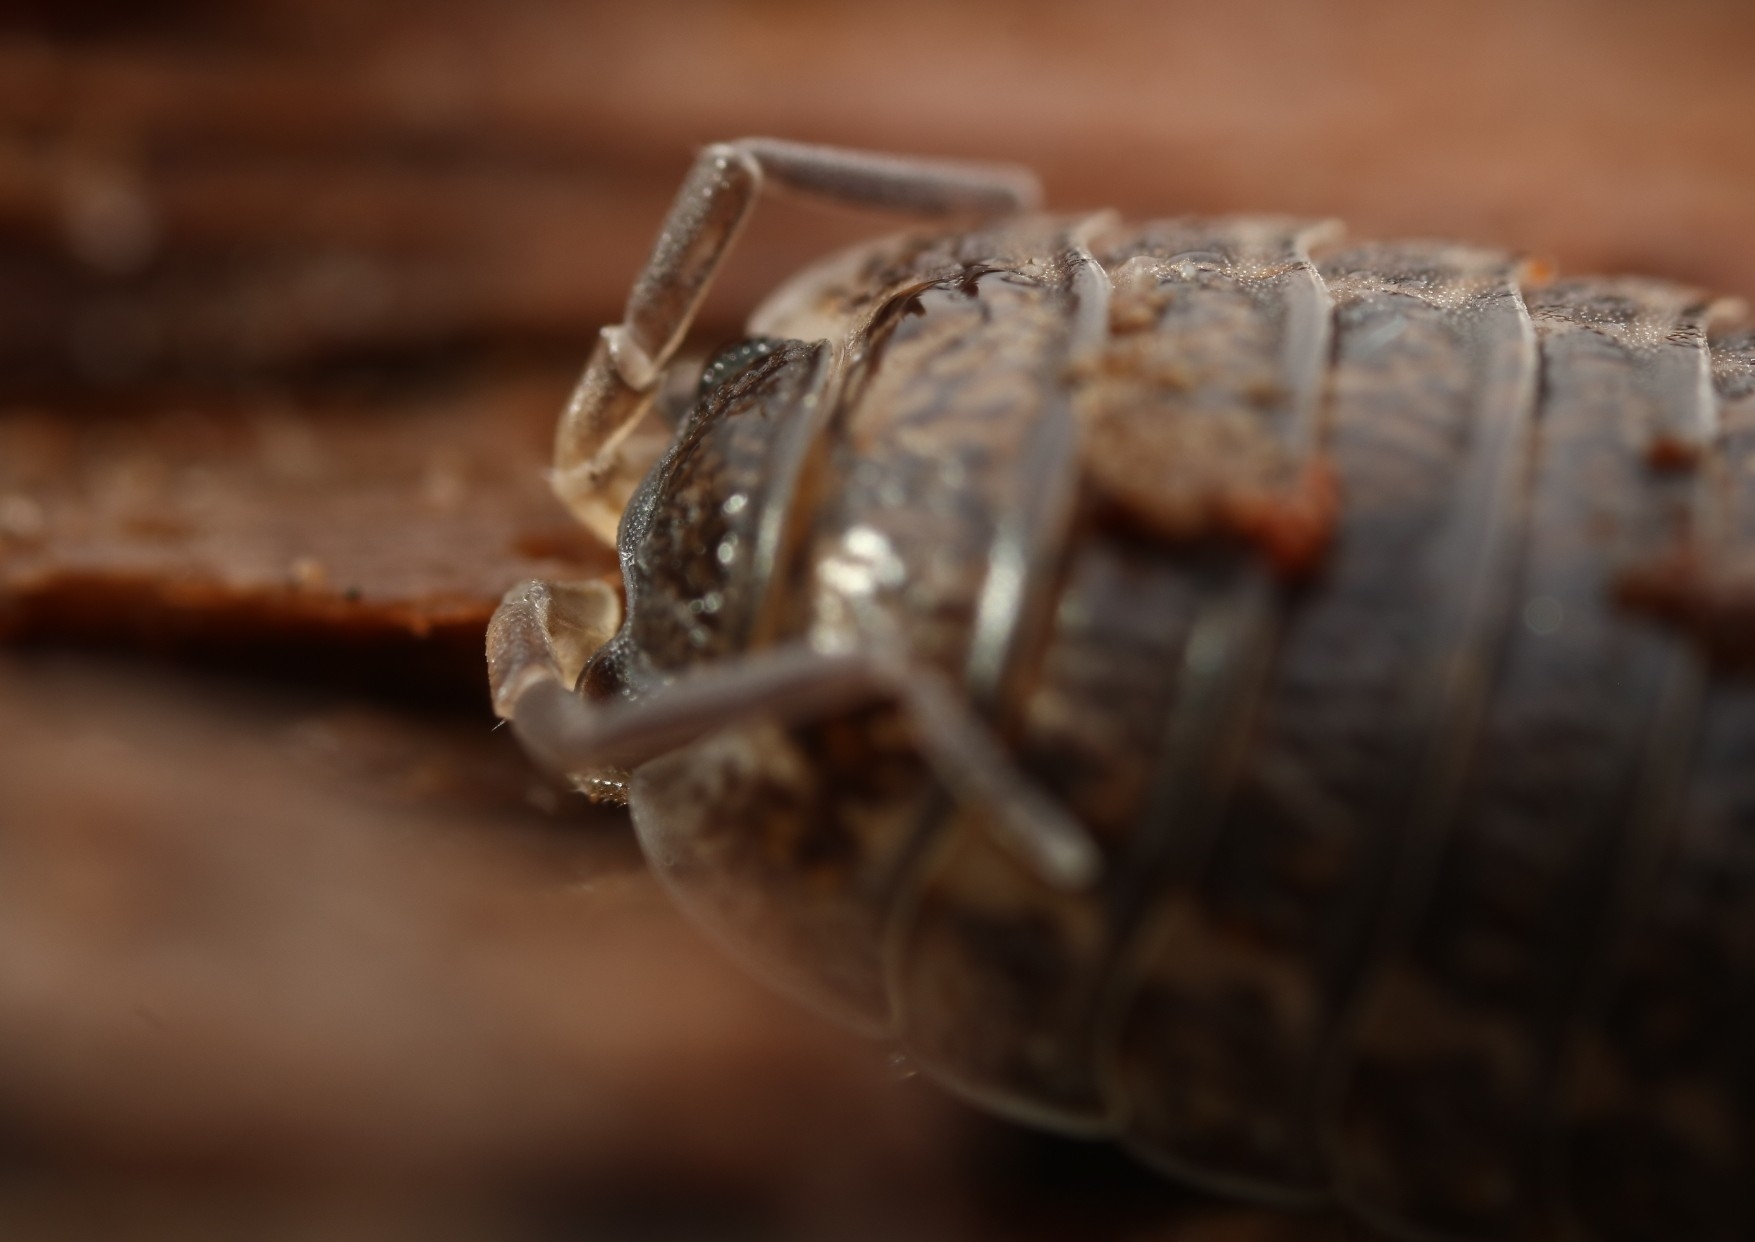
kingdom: Animalia
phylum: Arthropoda
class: Malacostraca
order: Isopoda
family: Trachelipodidae
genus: Trachelipus
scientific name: Trachelipus rathkii
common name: Isopod
